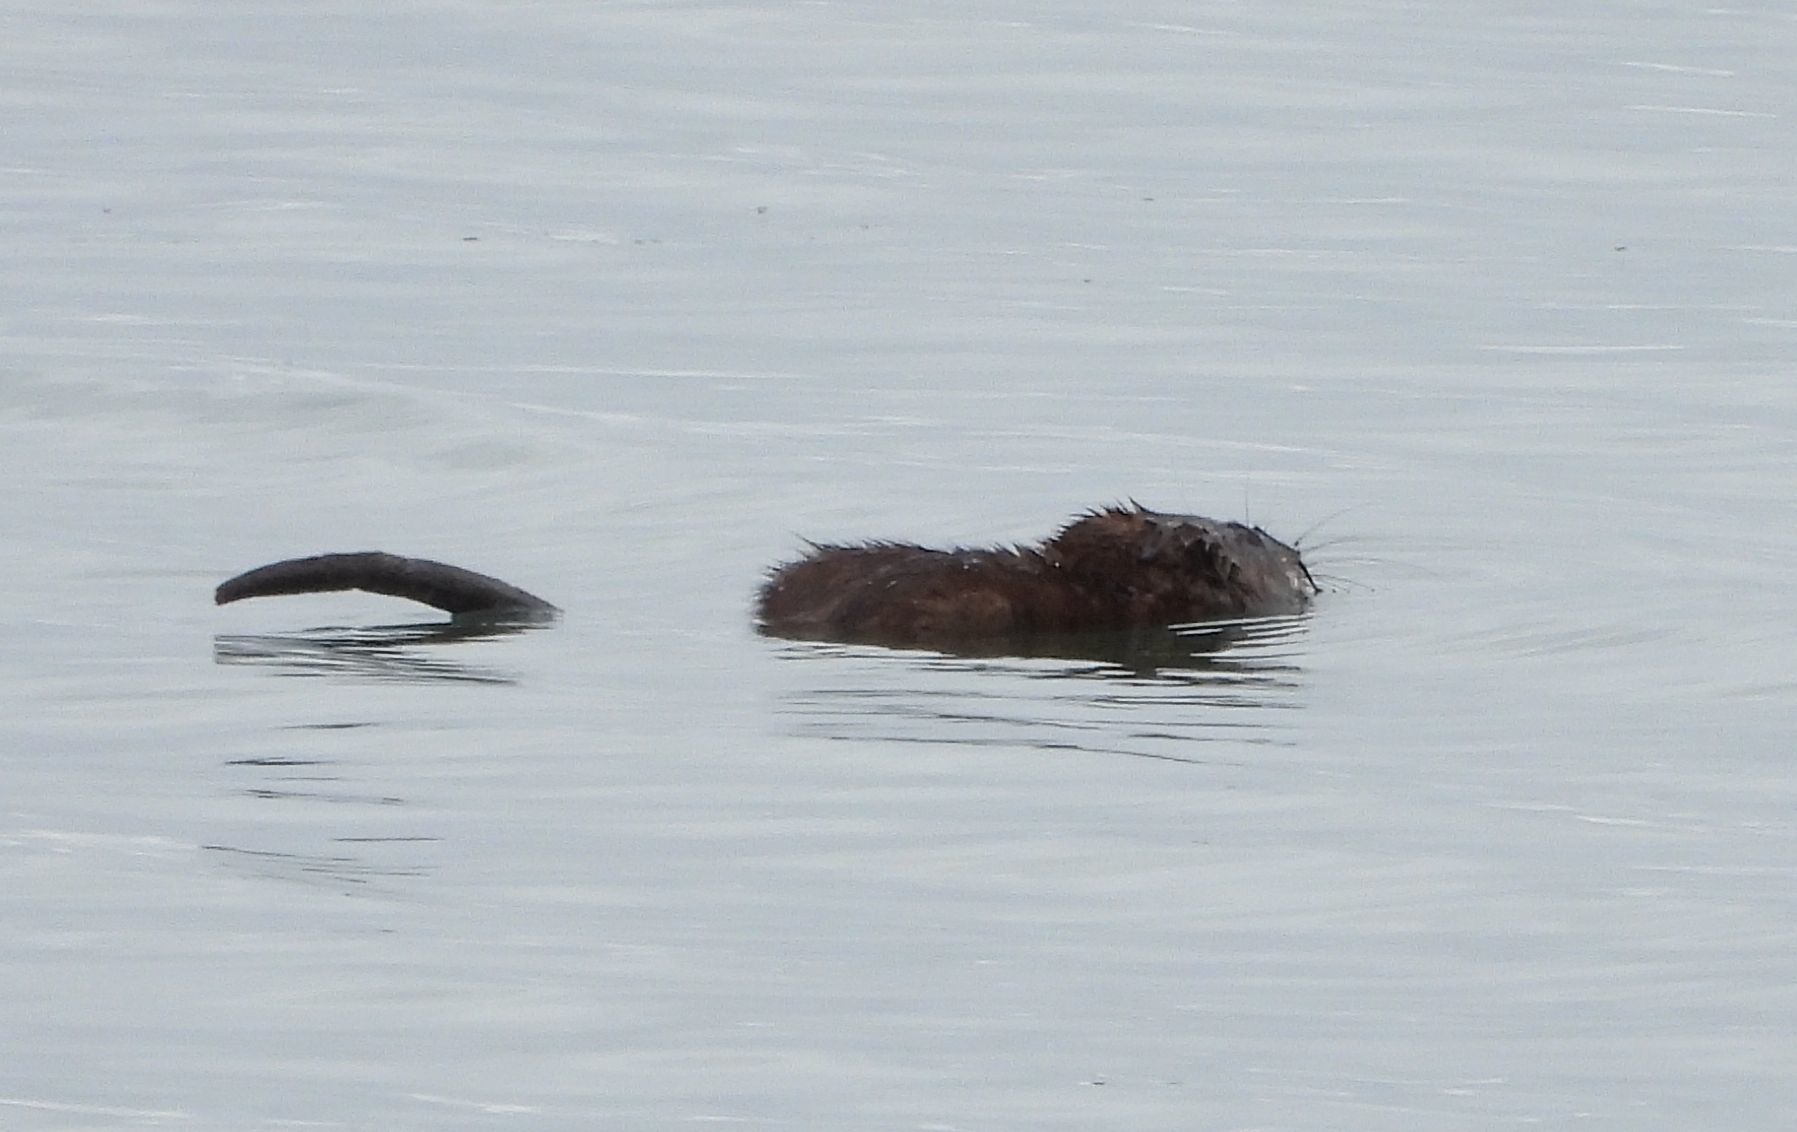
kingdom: Animalia
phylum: Chordata
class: Mammalia
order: Rodentia
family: Cricetidae
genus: Ondatra
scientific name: Ondatra zibethicus
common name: Muskrat
